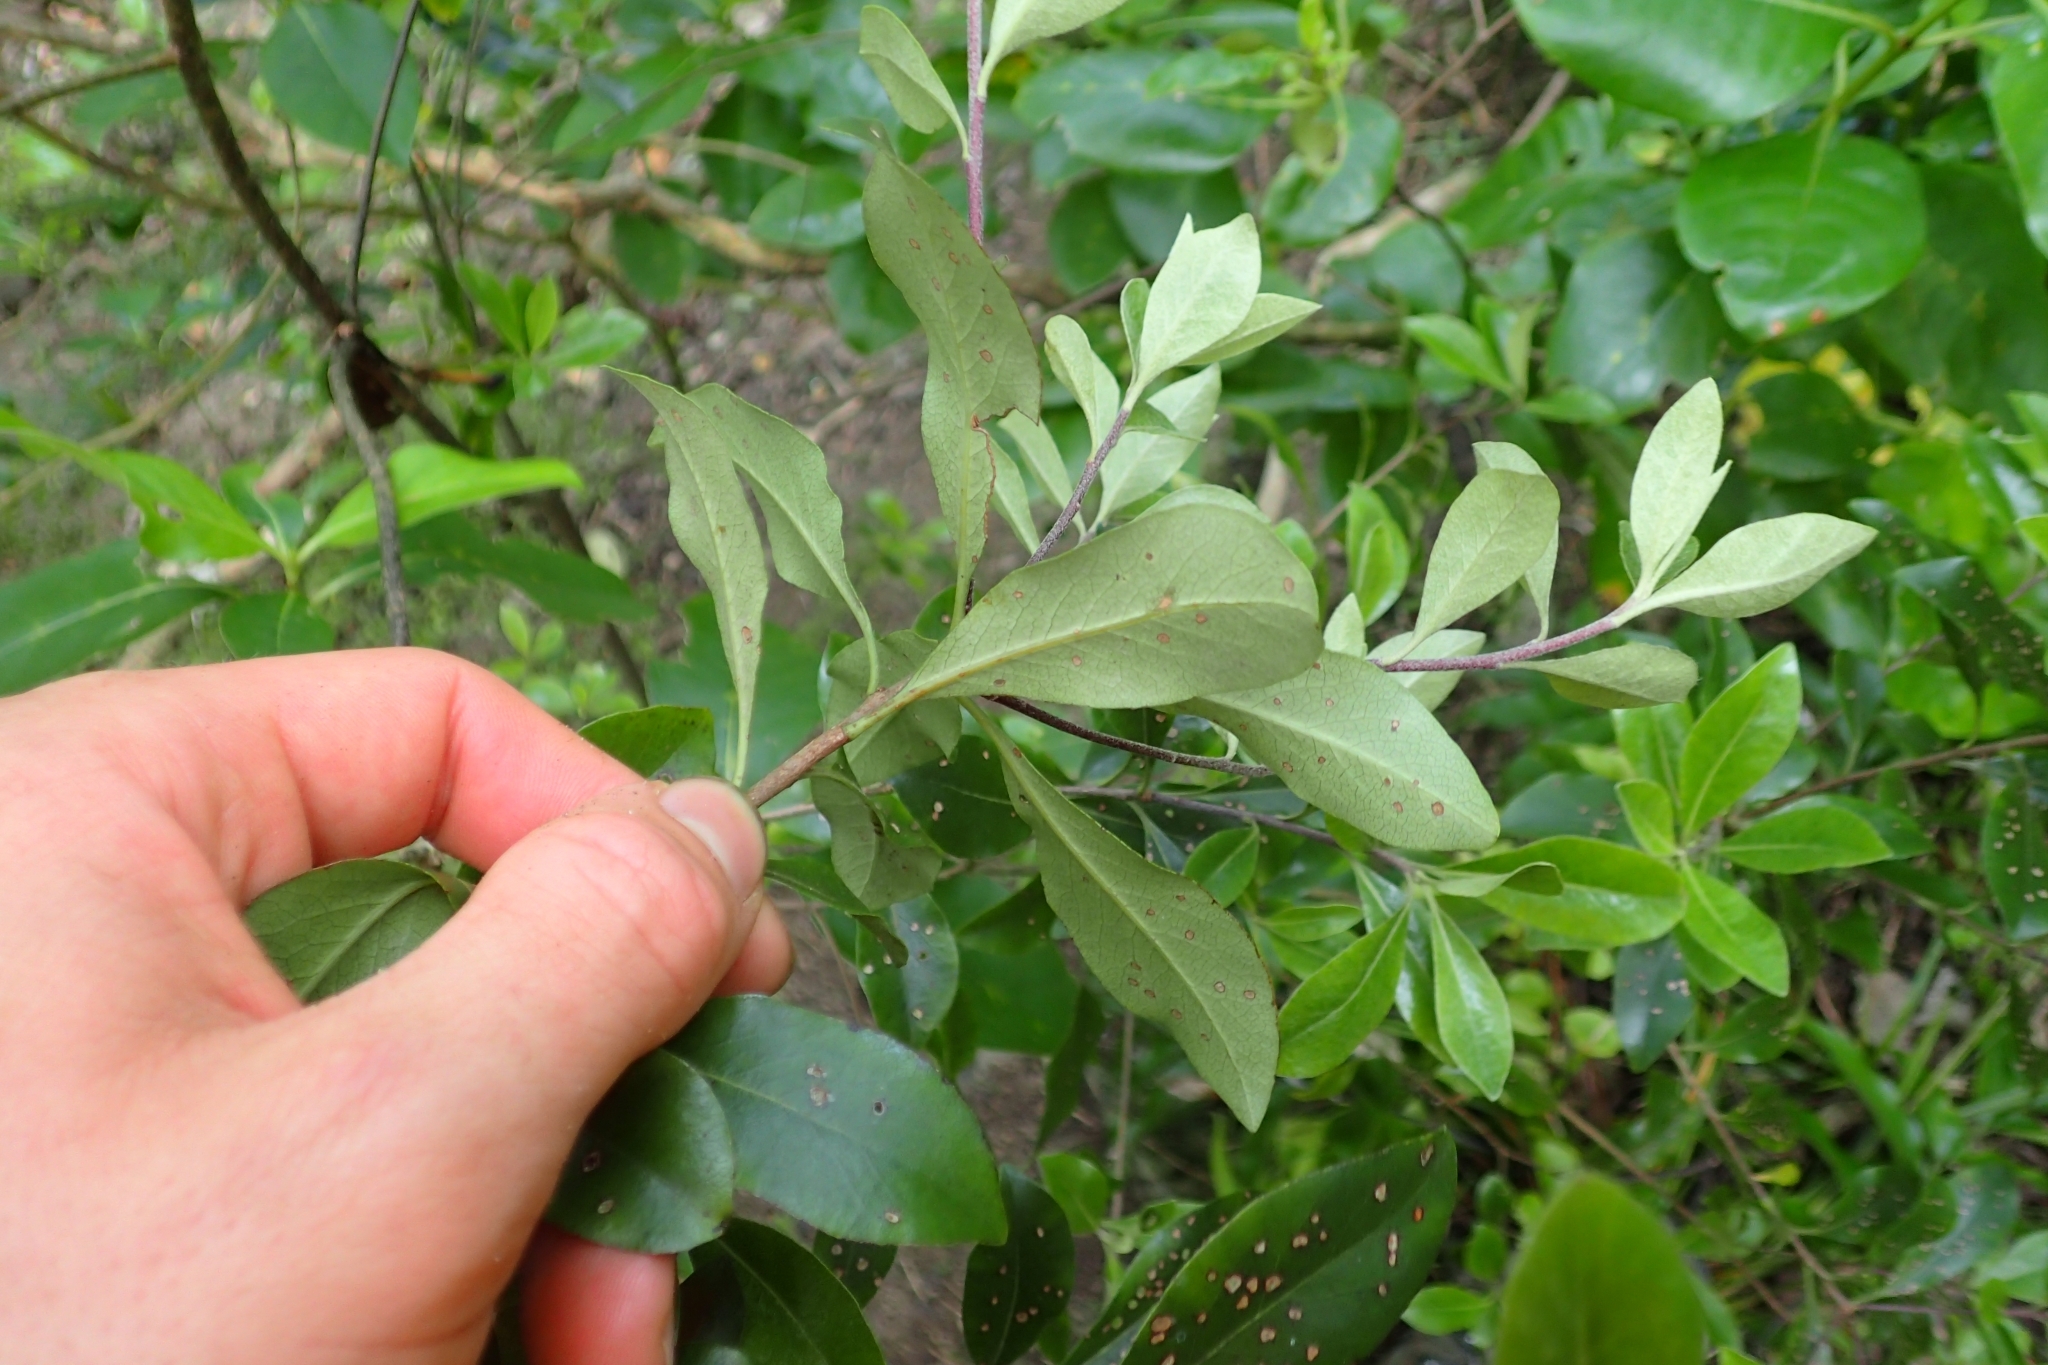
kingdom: Plantae
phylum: Tracheophyta
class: Magnoliopsida
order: Apiales
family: Pittosporaceae
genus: Pittosporum
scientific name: Pittosporum tenuifolium
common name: Kohuhu
